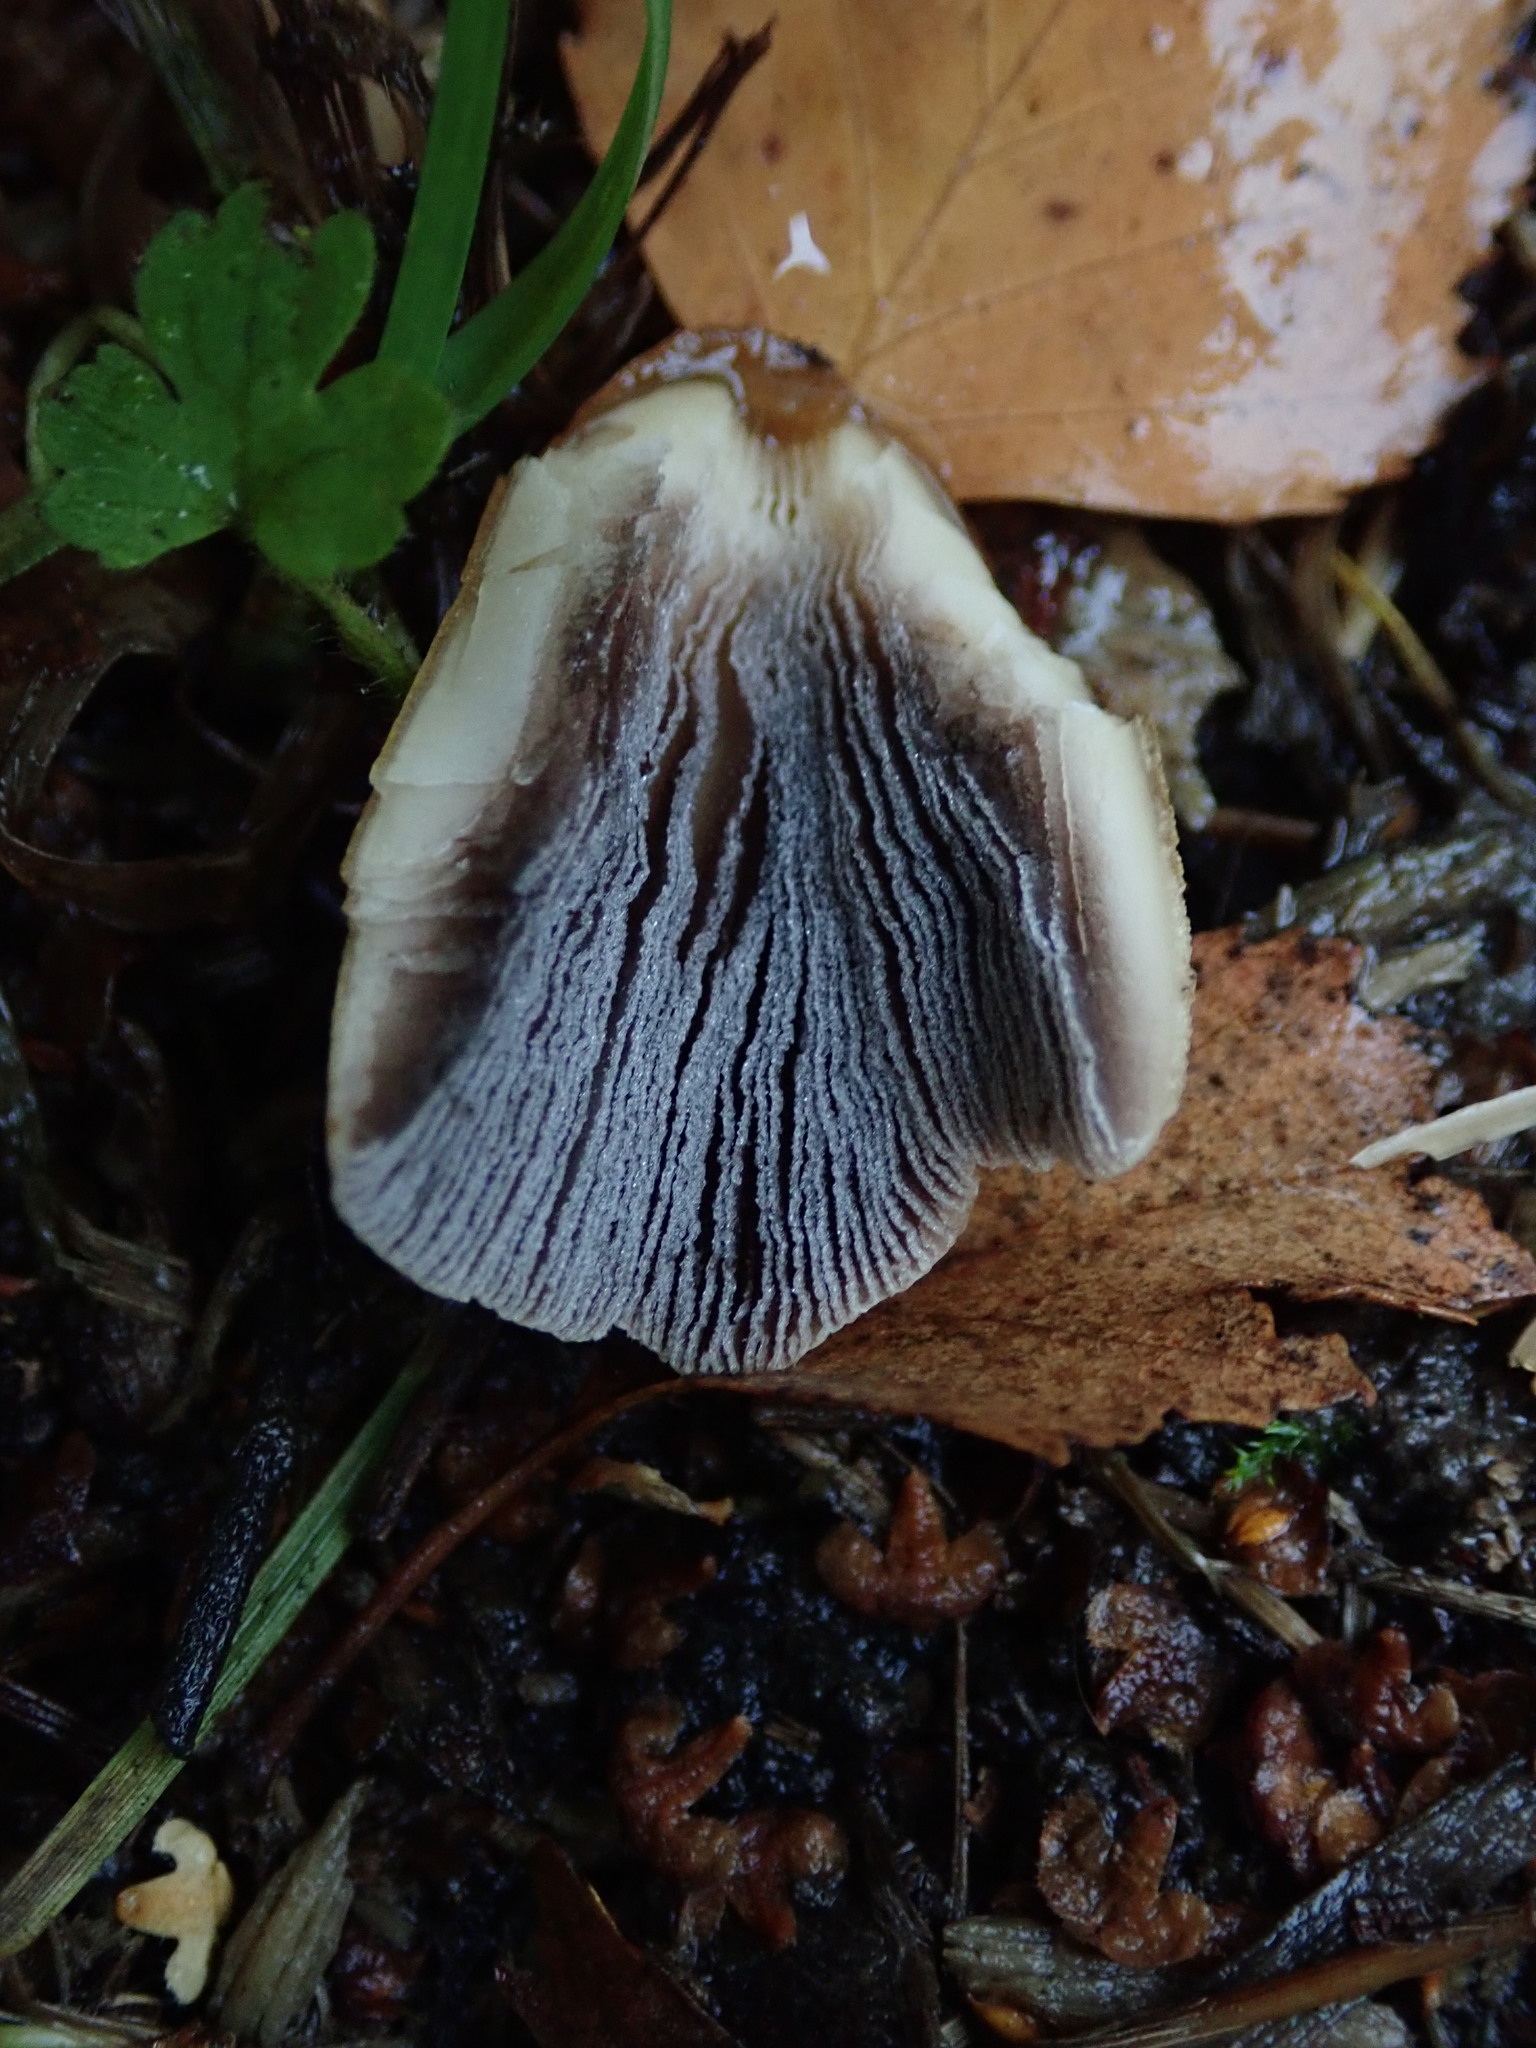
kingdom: Fungi
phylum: Basidiomycota
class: Agaricomycetes
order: Agaricales
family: Psathyrellaceae
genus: Coprinellus
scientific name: Coprinellus micaceus
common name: Glistening ink-cap
